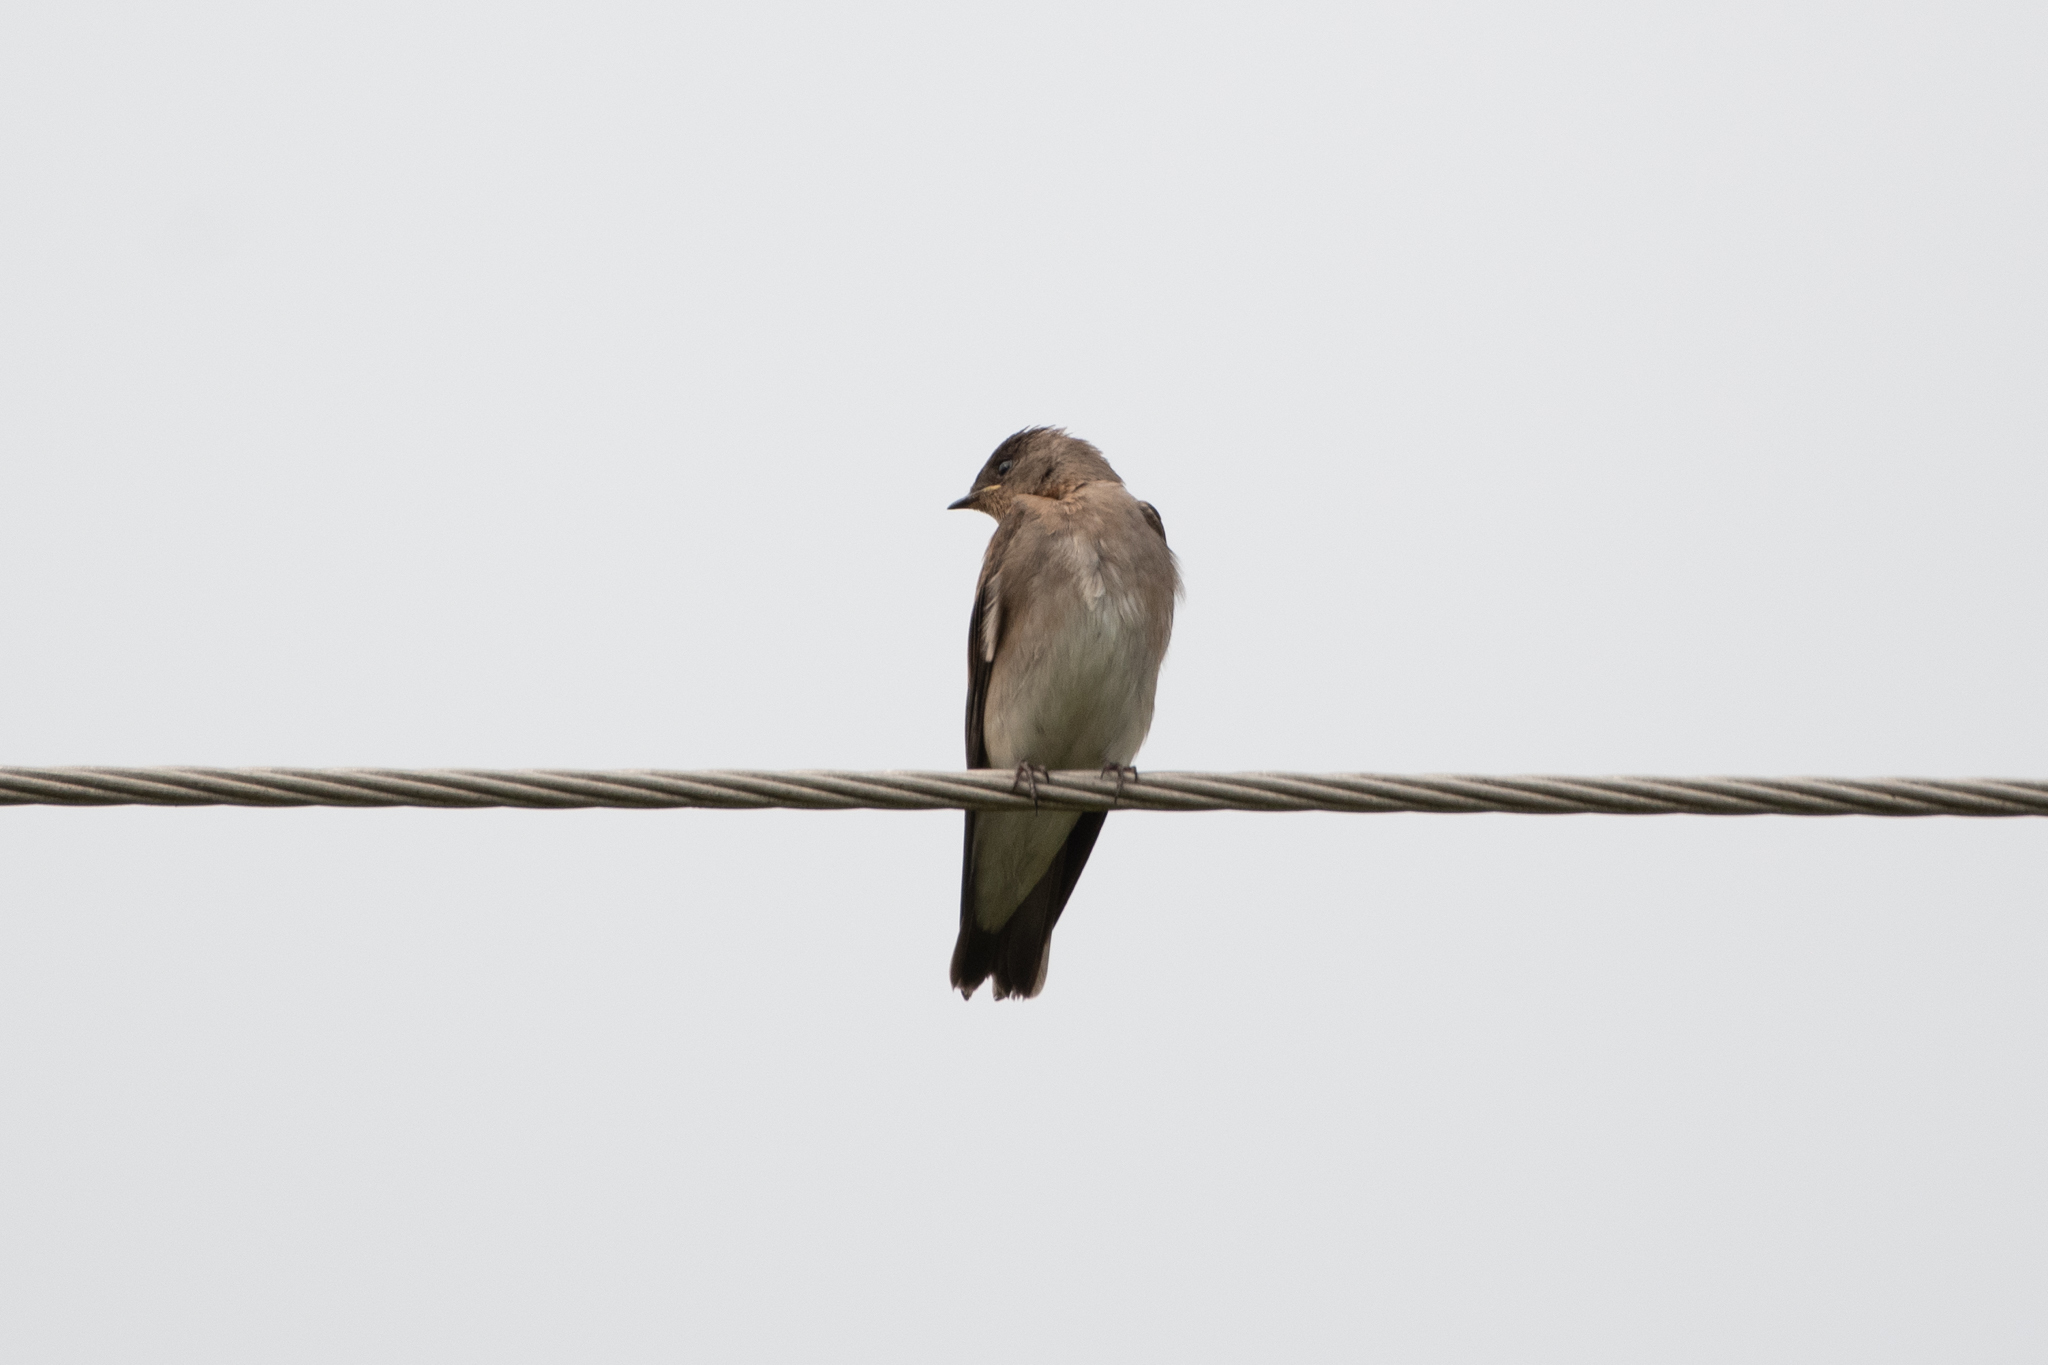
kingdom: Animalia
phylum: Chordata
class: Aves
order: Passeriformes
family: Hirundinidae
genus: Stelgidopteryx
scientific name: Stelgidopteryx serripennis
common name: Northern rough-winged swallow
